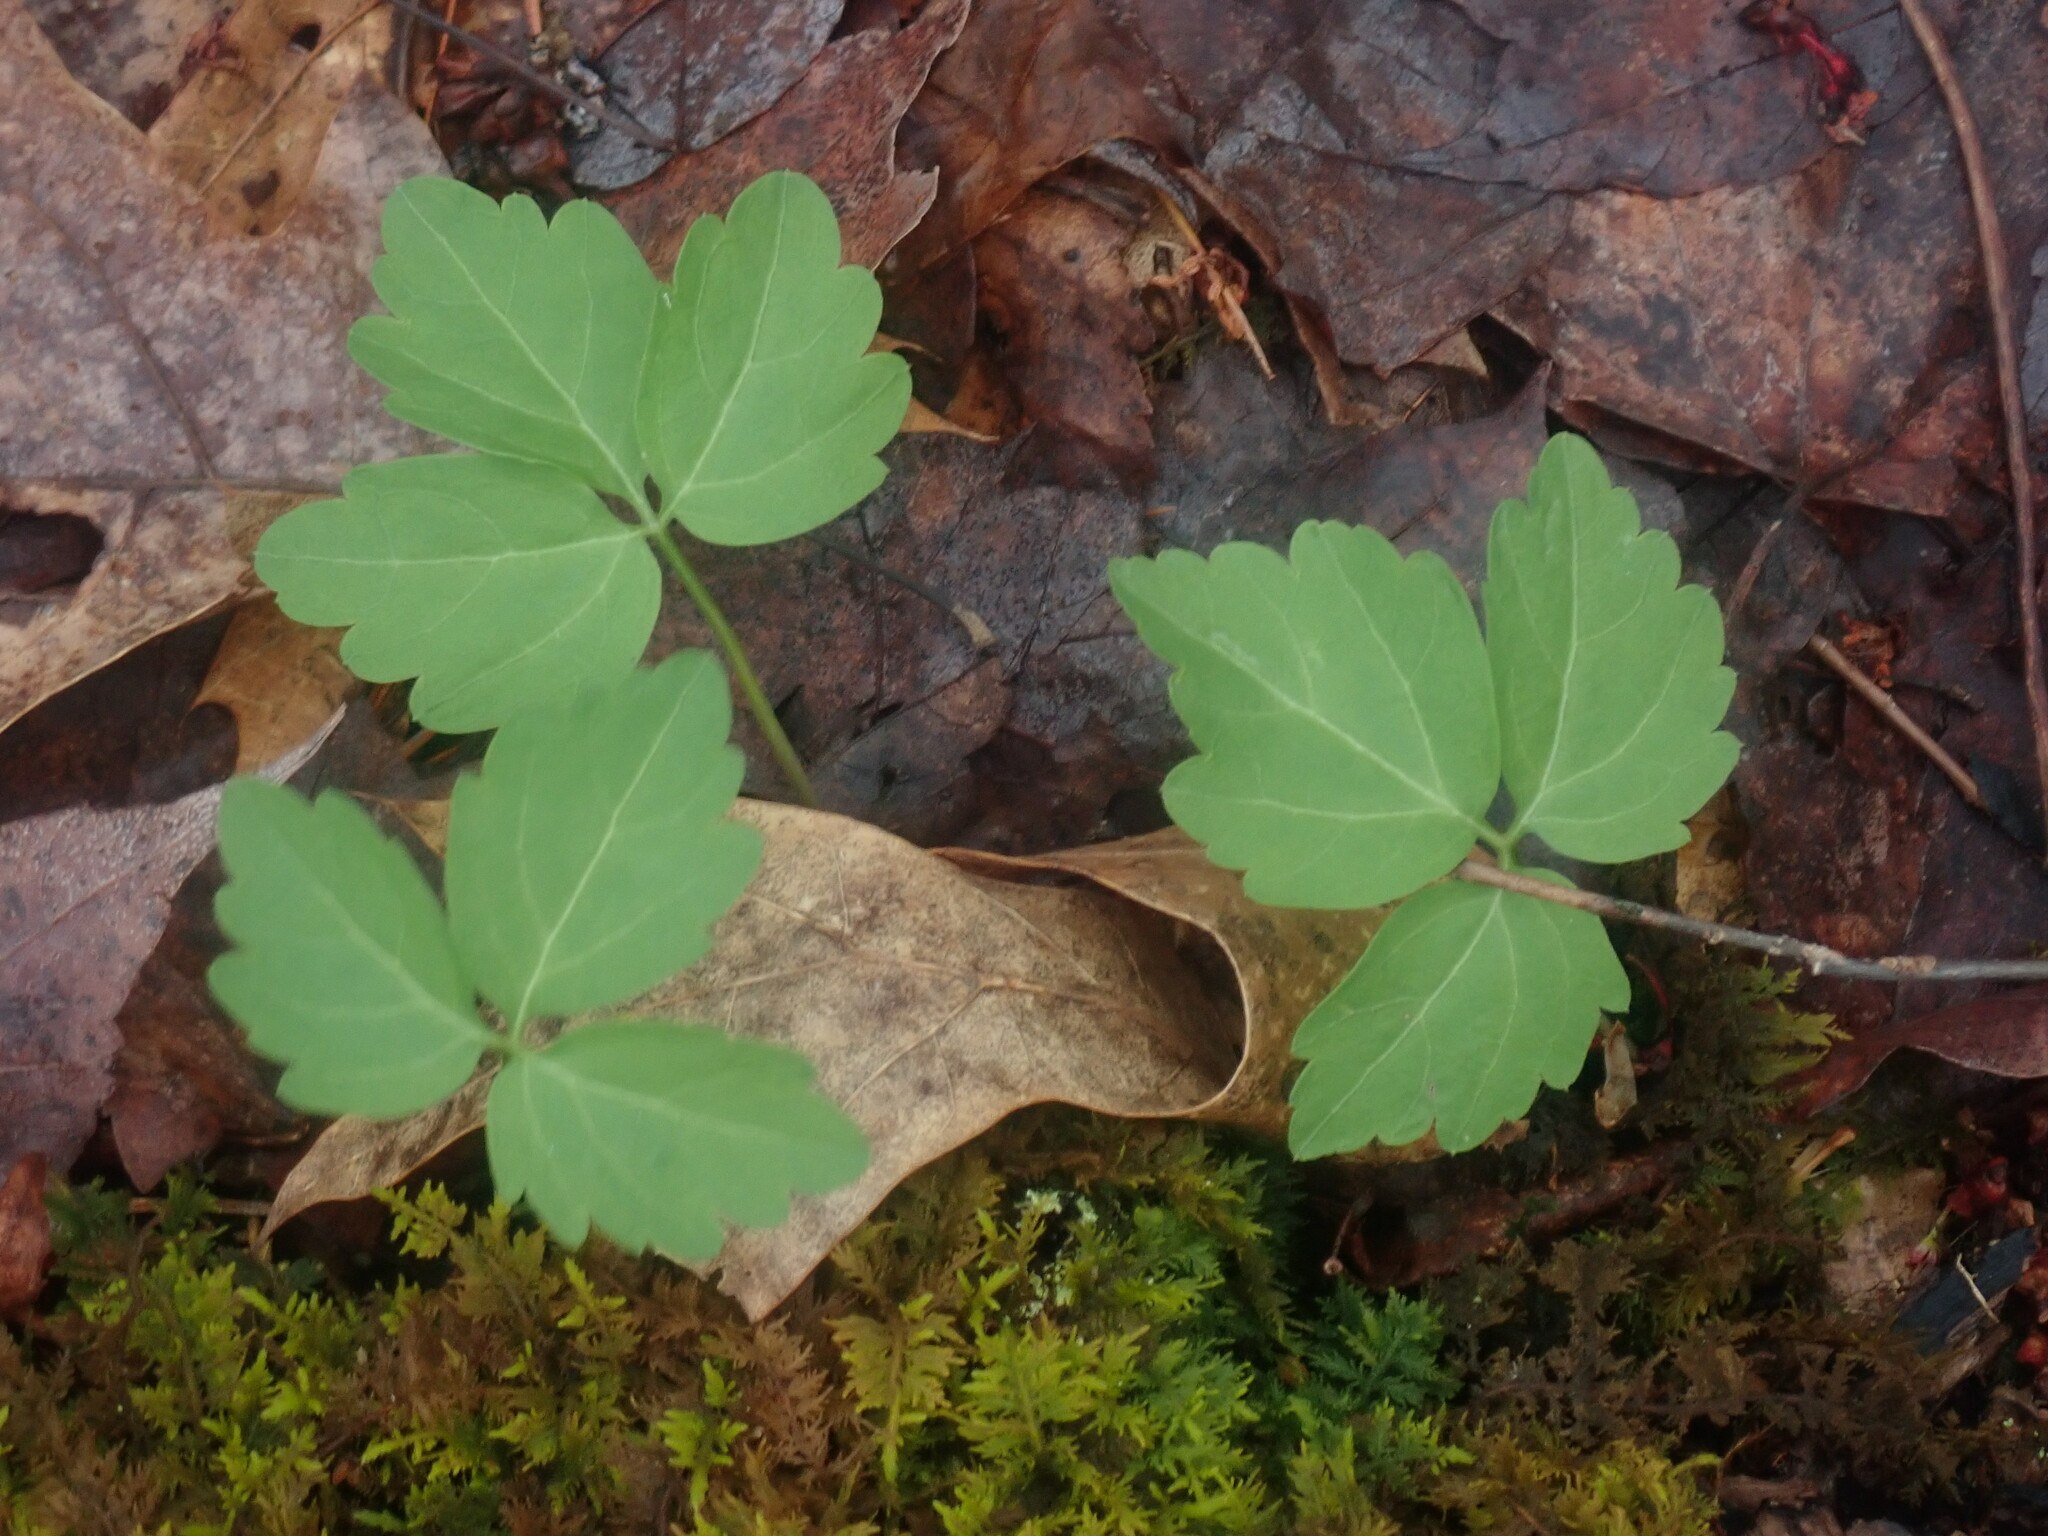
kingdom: Plantae
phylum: Tracheophyta
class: Magnoliopsida
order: Brassicales
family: Brassicaceae
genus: Cardamine
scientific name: Cardamine diphylla
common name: Broad-leaved toothwort
